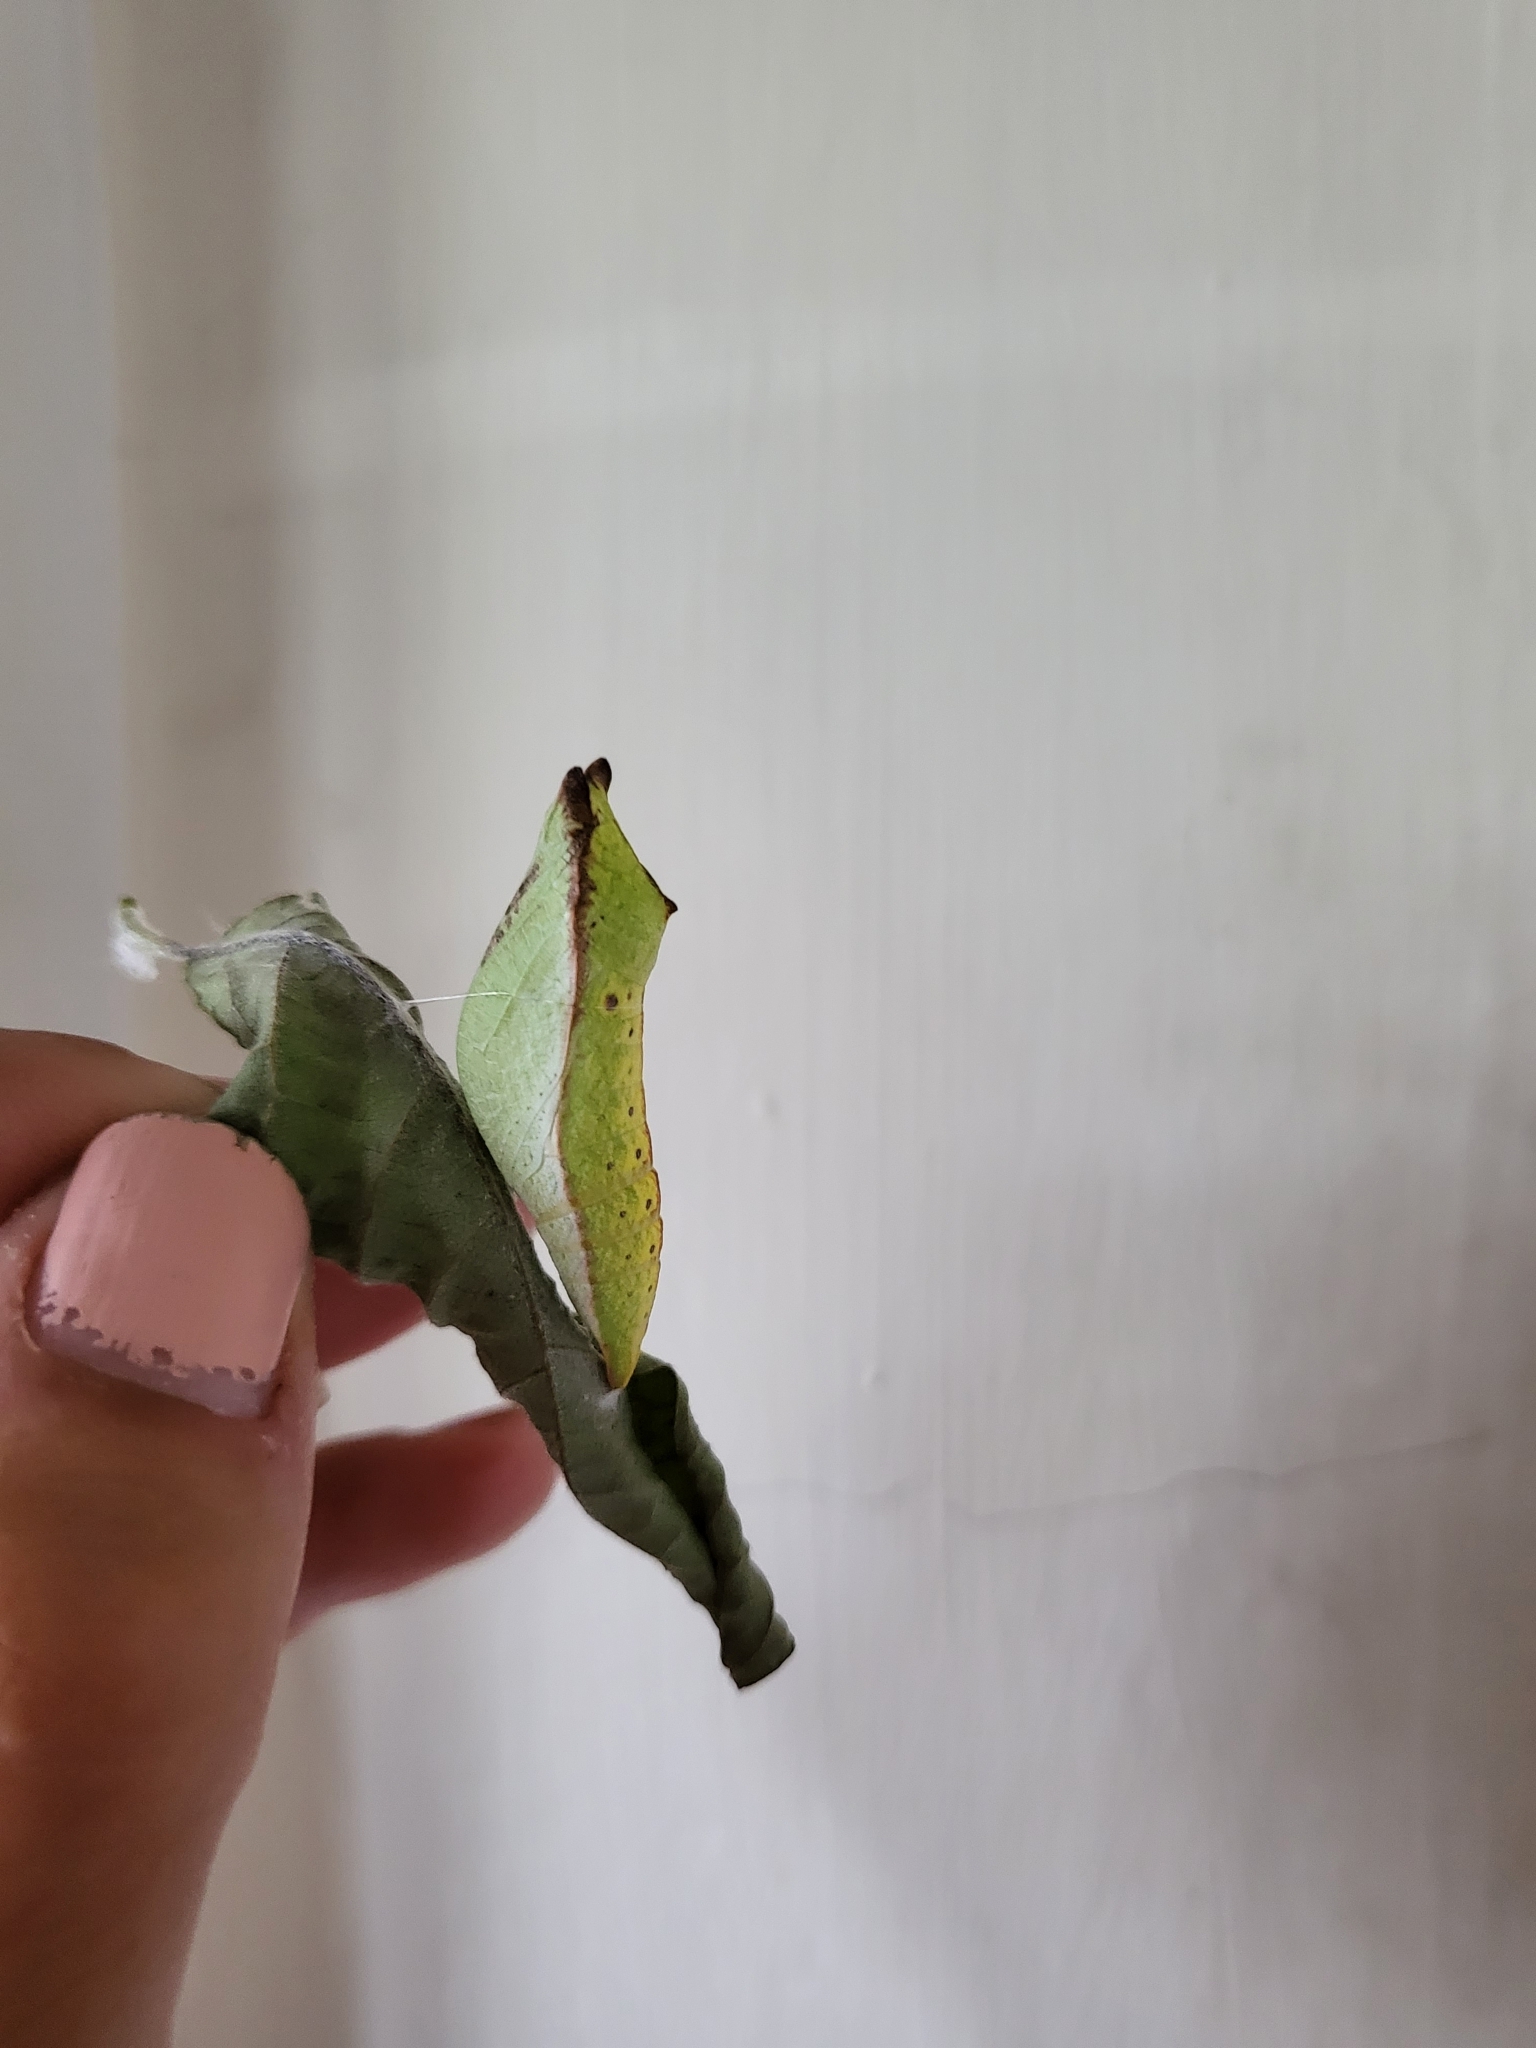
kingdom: Animalia
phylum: Arthropoda
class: Insecta
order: Lepidoptera
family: Papilionidae
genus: Papilio
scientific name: Papilio troilus
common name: Spicebush swallowtail
